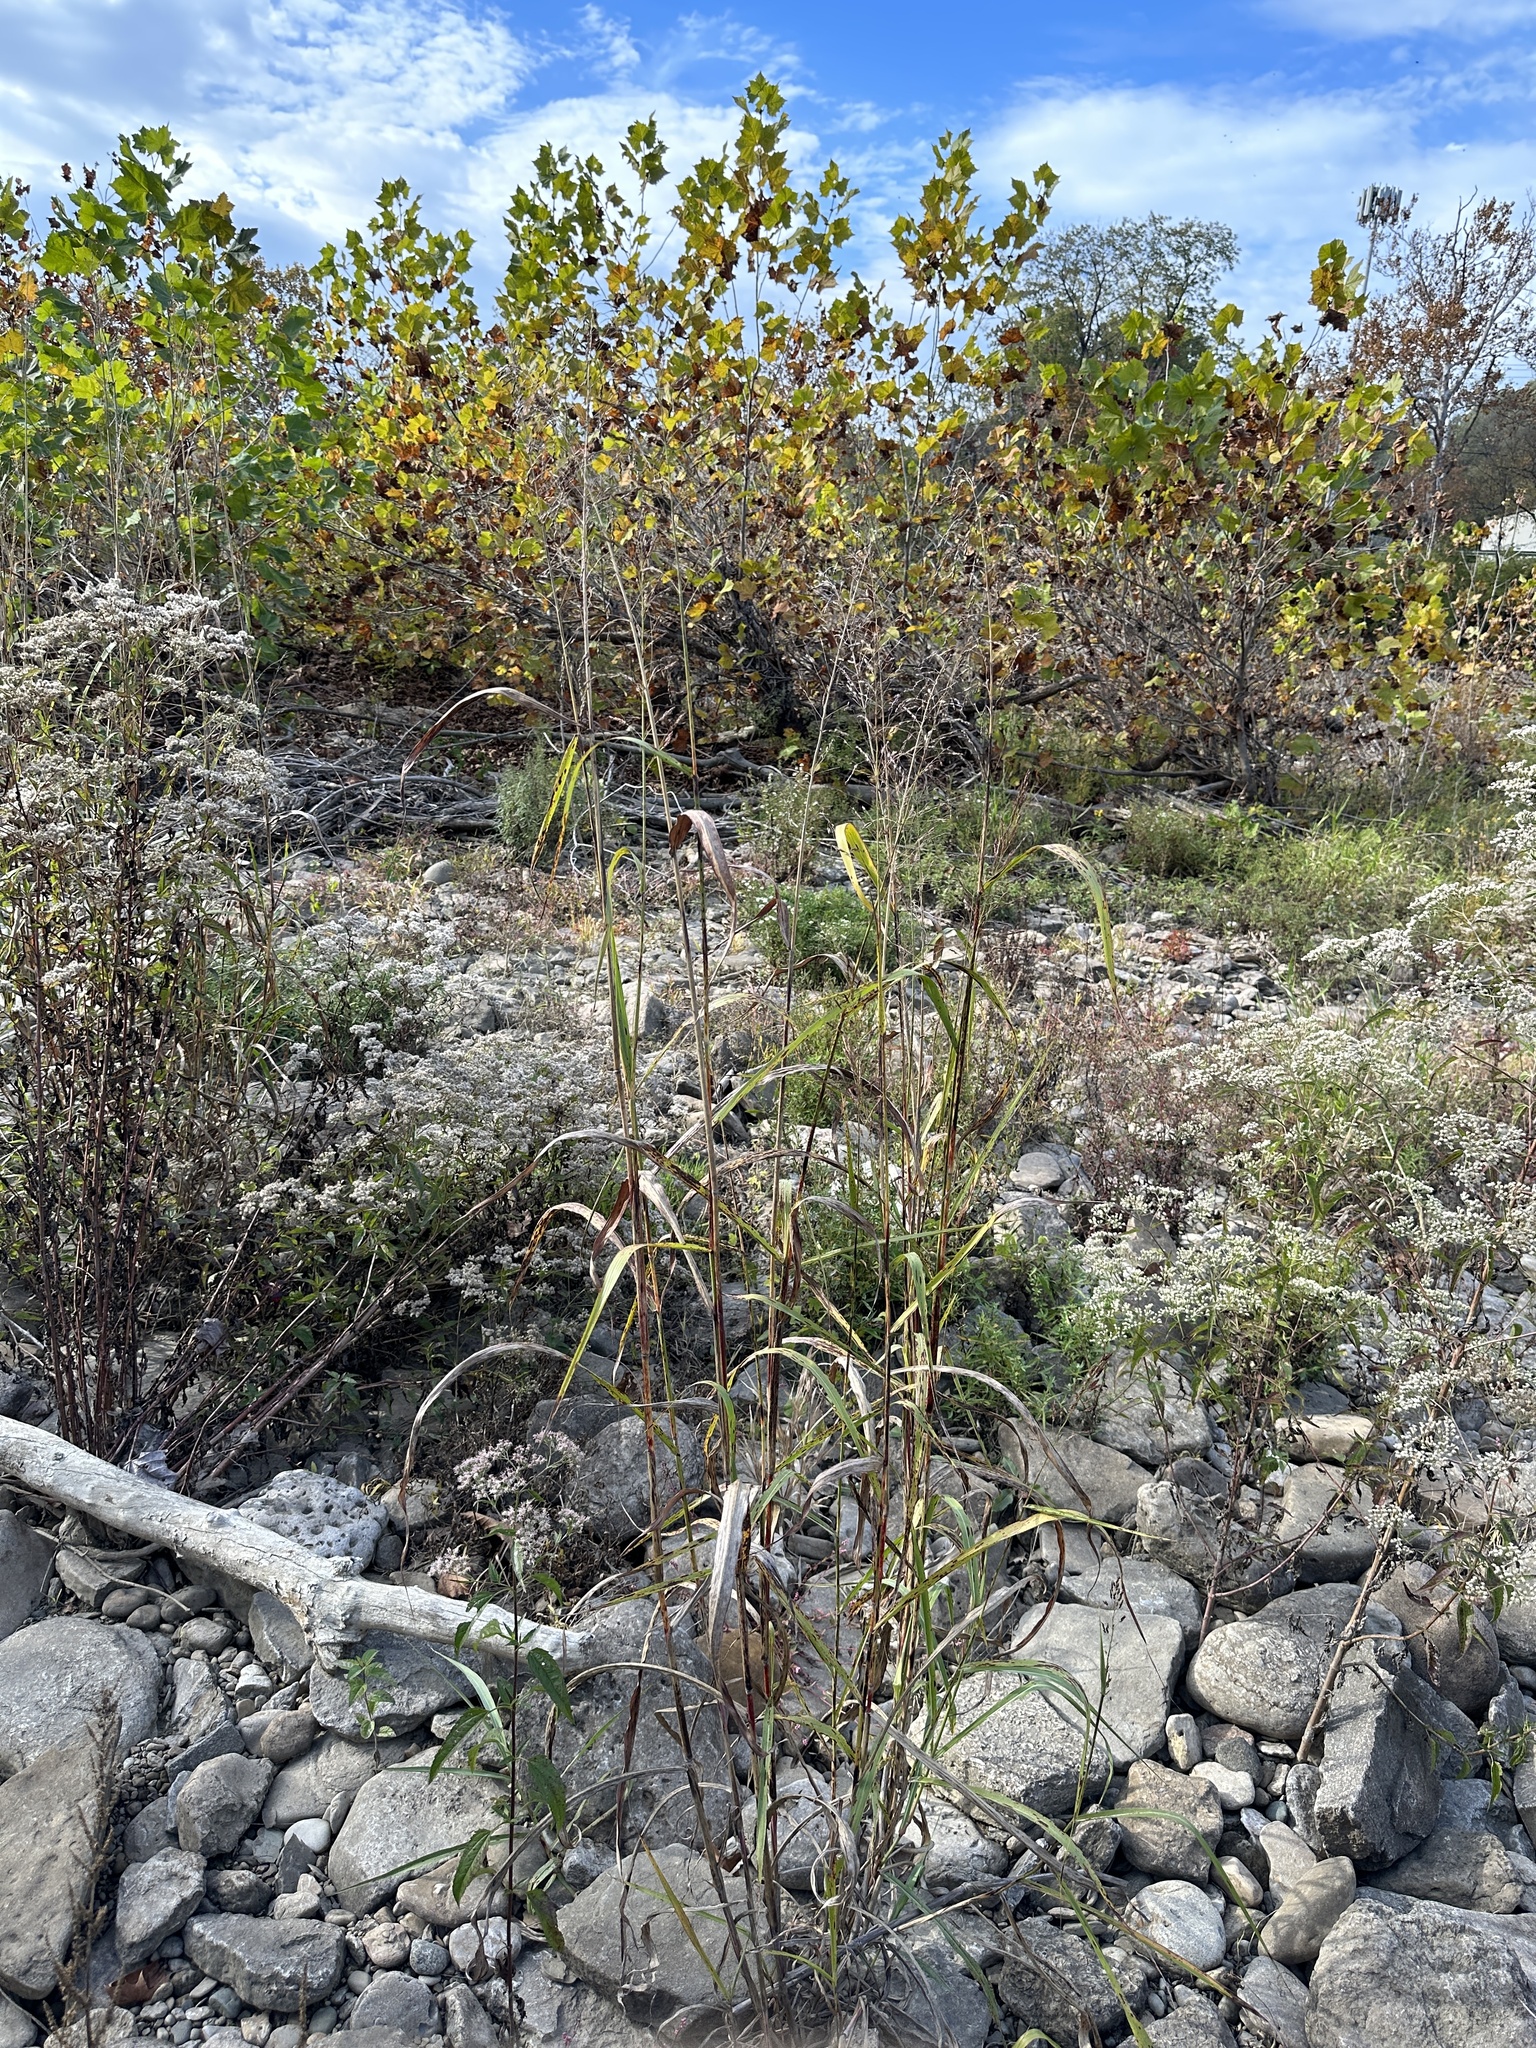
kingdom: Plantae
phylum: Tracheophyta
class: Liliopsida
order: Poales
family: Poaceae
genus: Sorghum
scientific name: Sorghum halepense
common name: Johnson-grass
